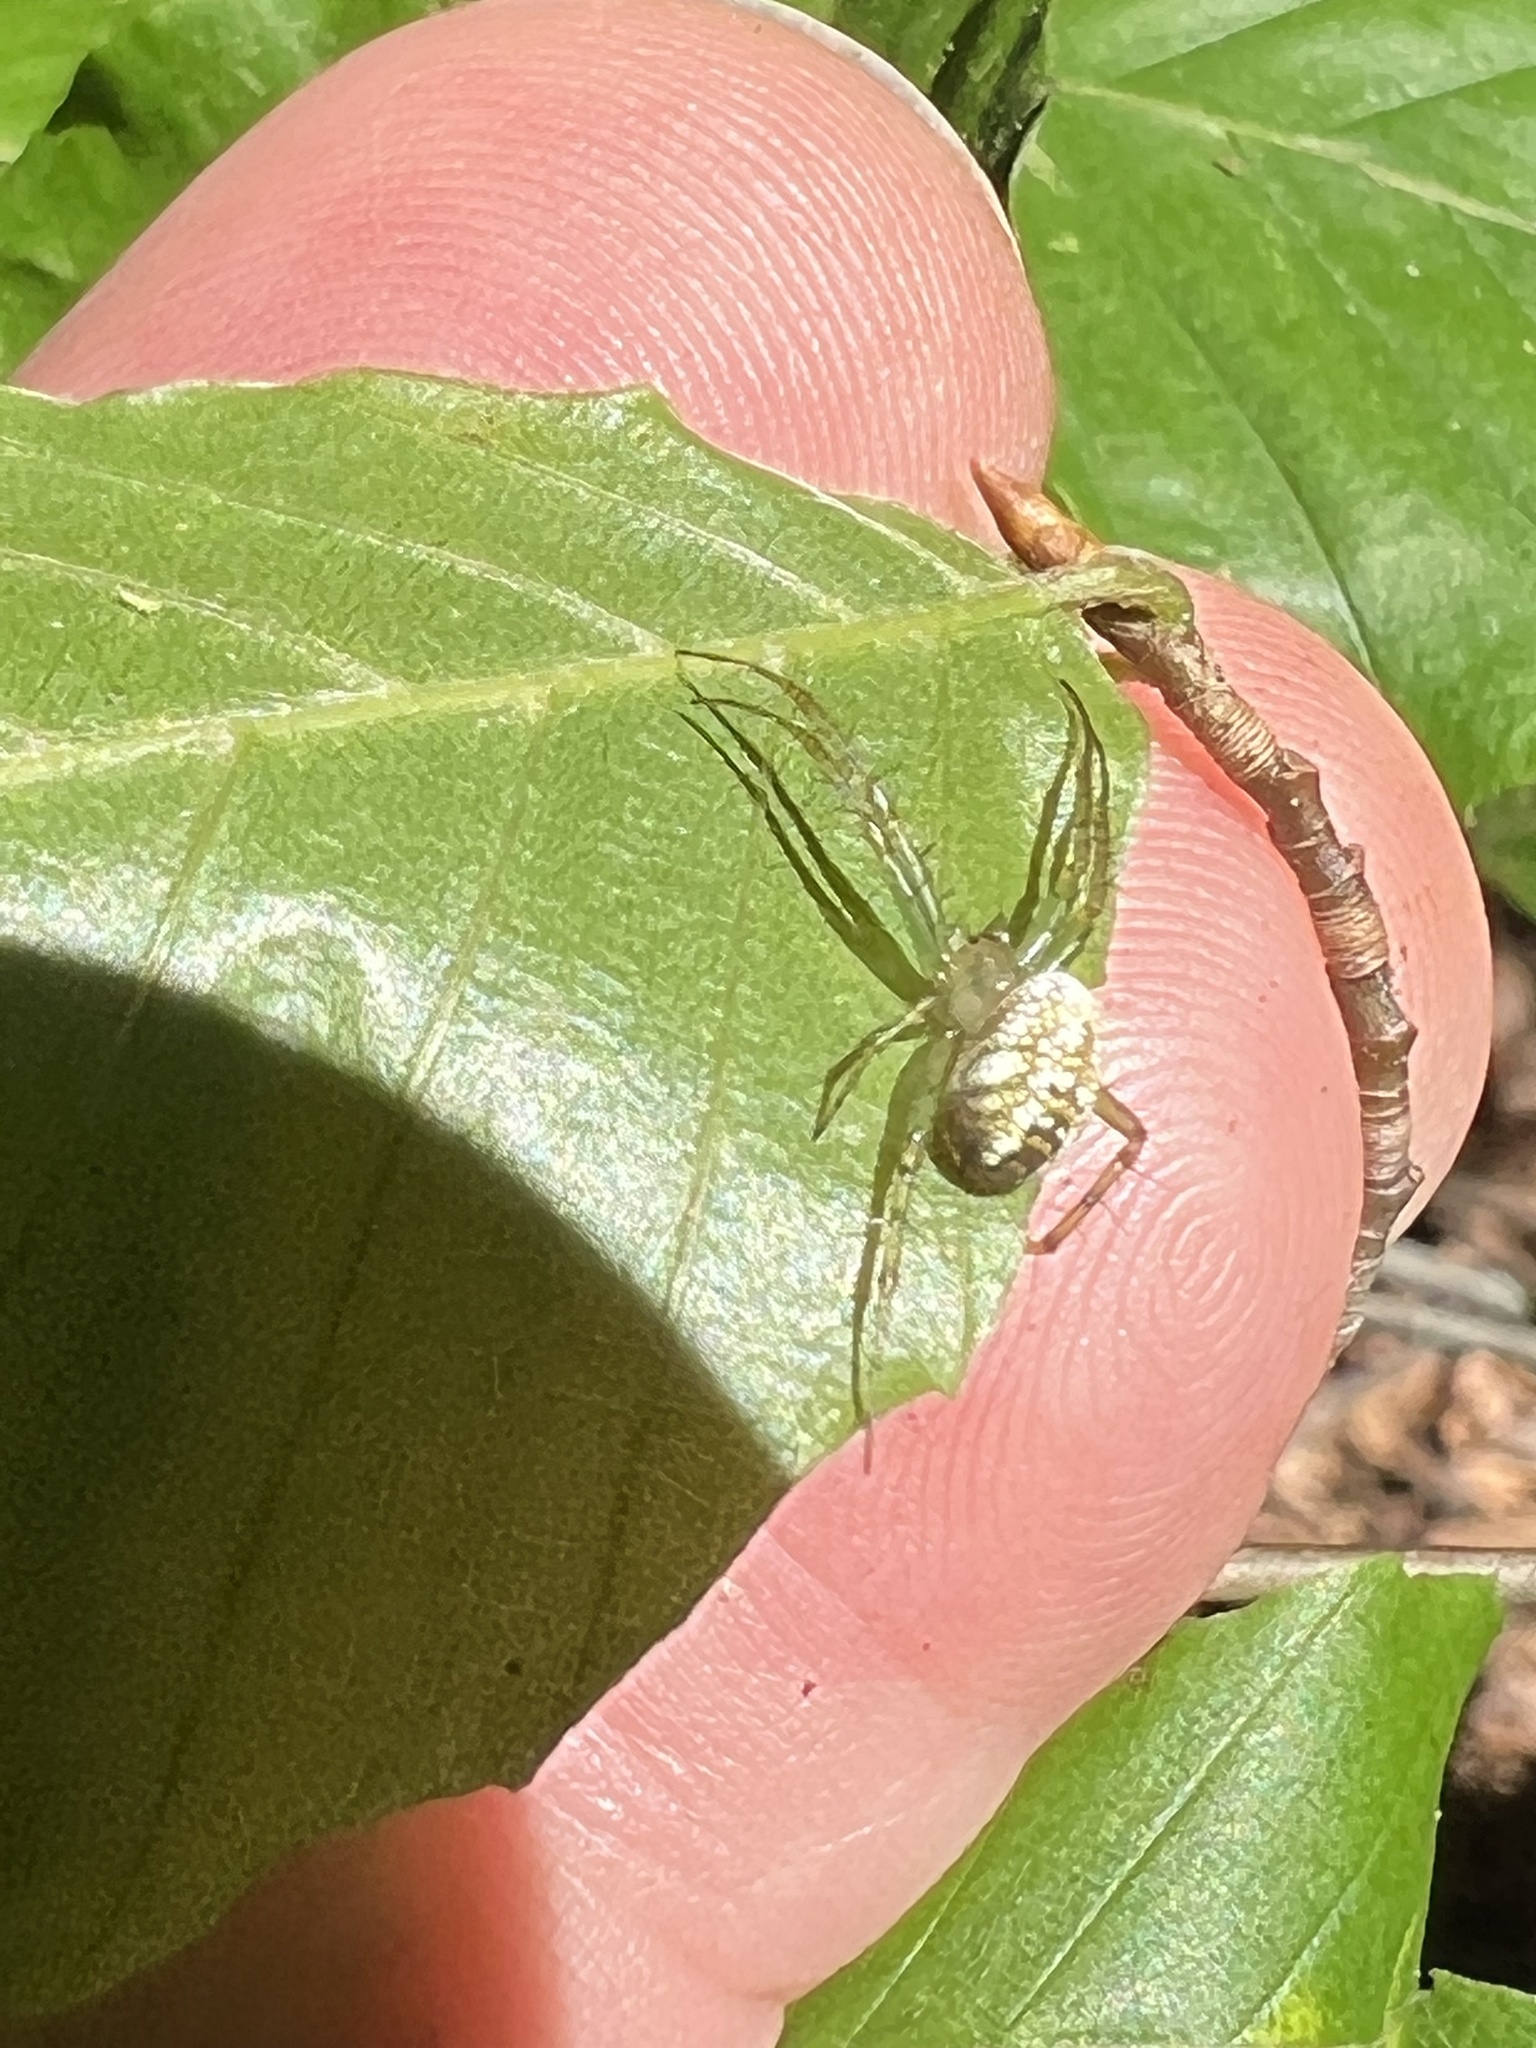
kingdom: Animalia
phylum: Arthropoda
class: Arachnida
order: Araneae
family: Araneidae
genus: Mangora
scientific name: Mangora spiculata
